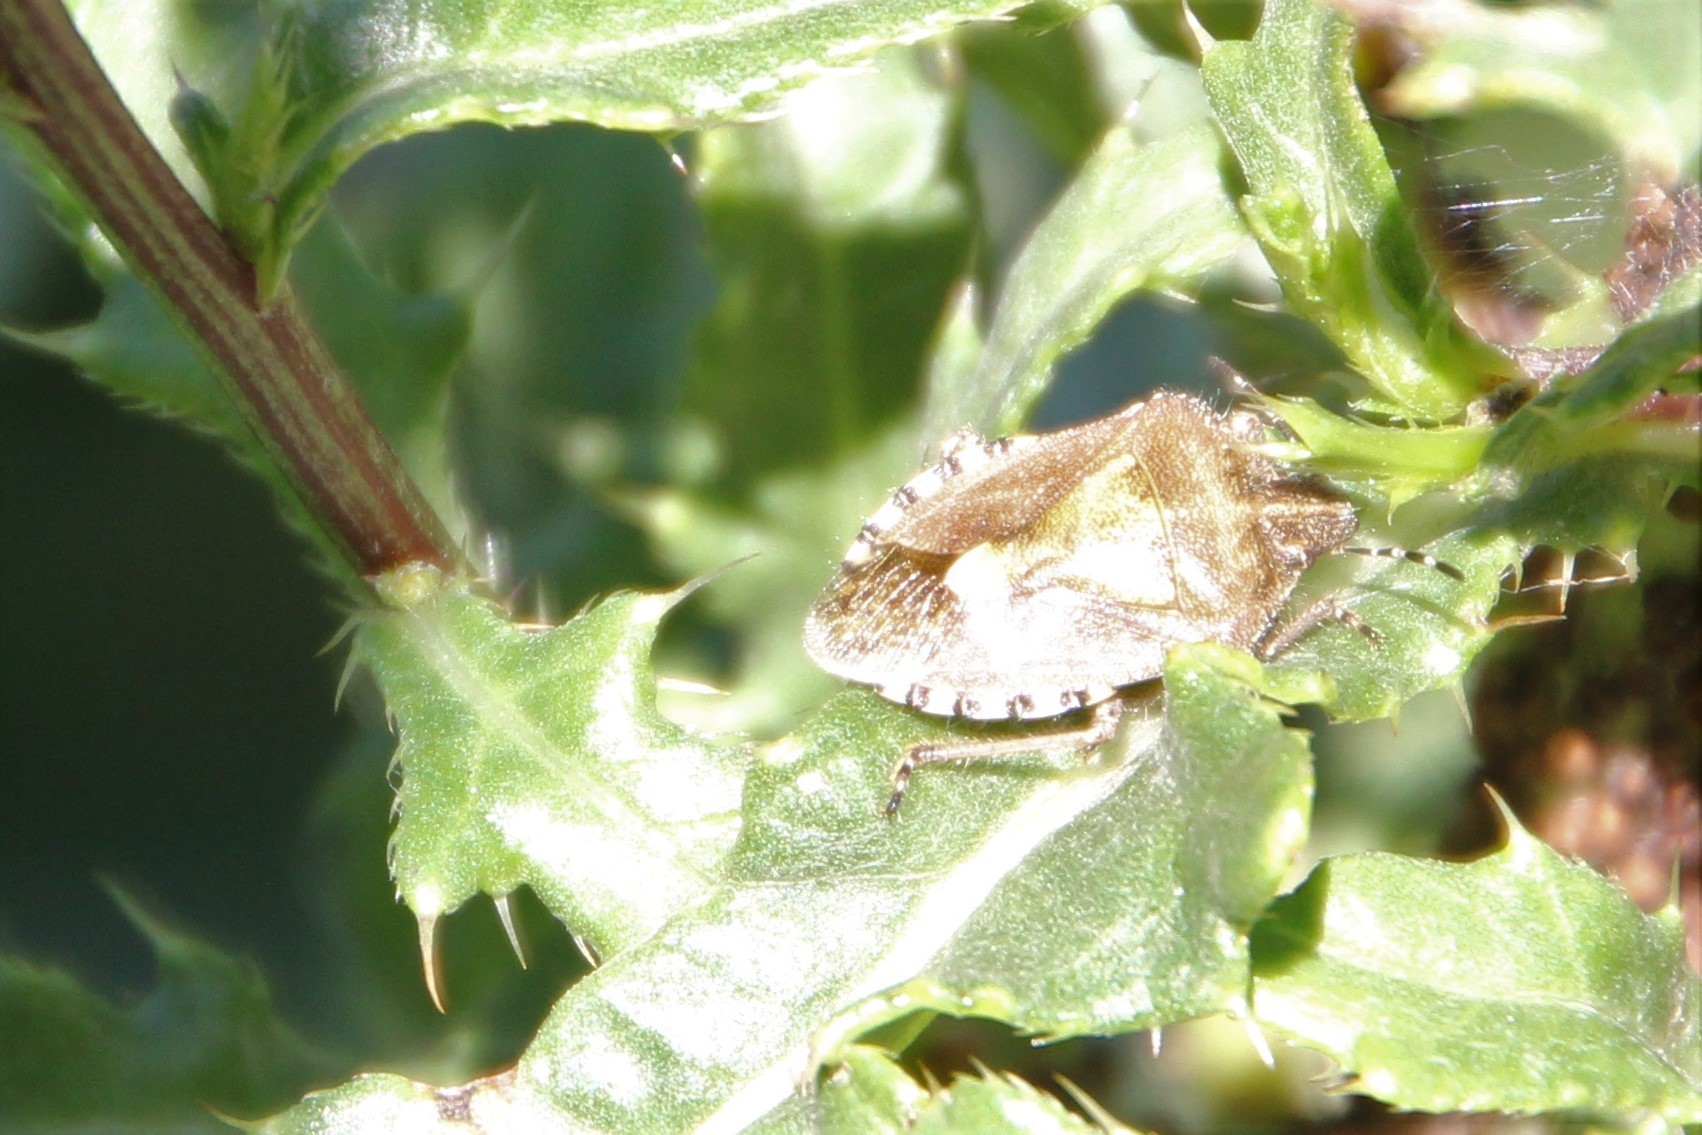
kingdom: Animalia
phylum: Arthropoda
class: Insecta
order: Hemiptera
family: Pentatomidae
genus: Dolycoris
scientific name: Dolycoris baccarum
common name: Sloe bug
